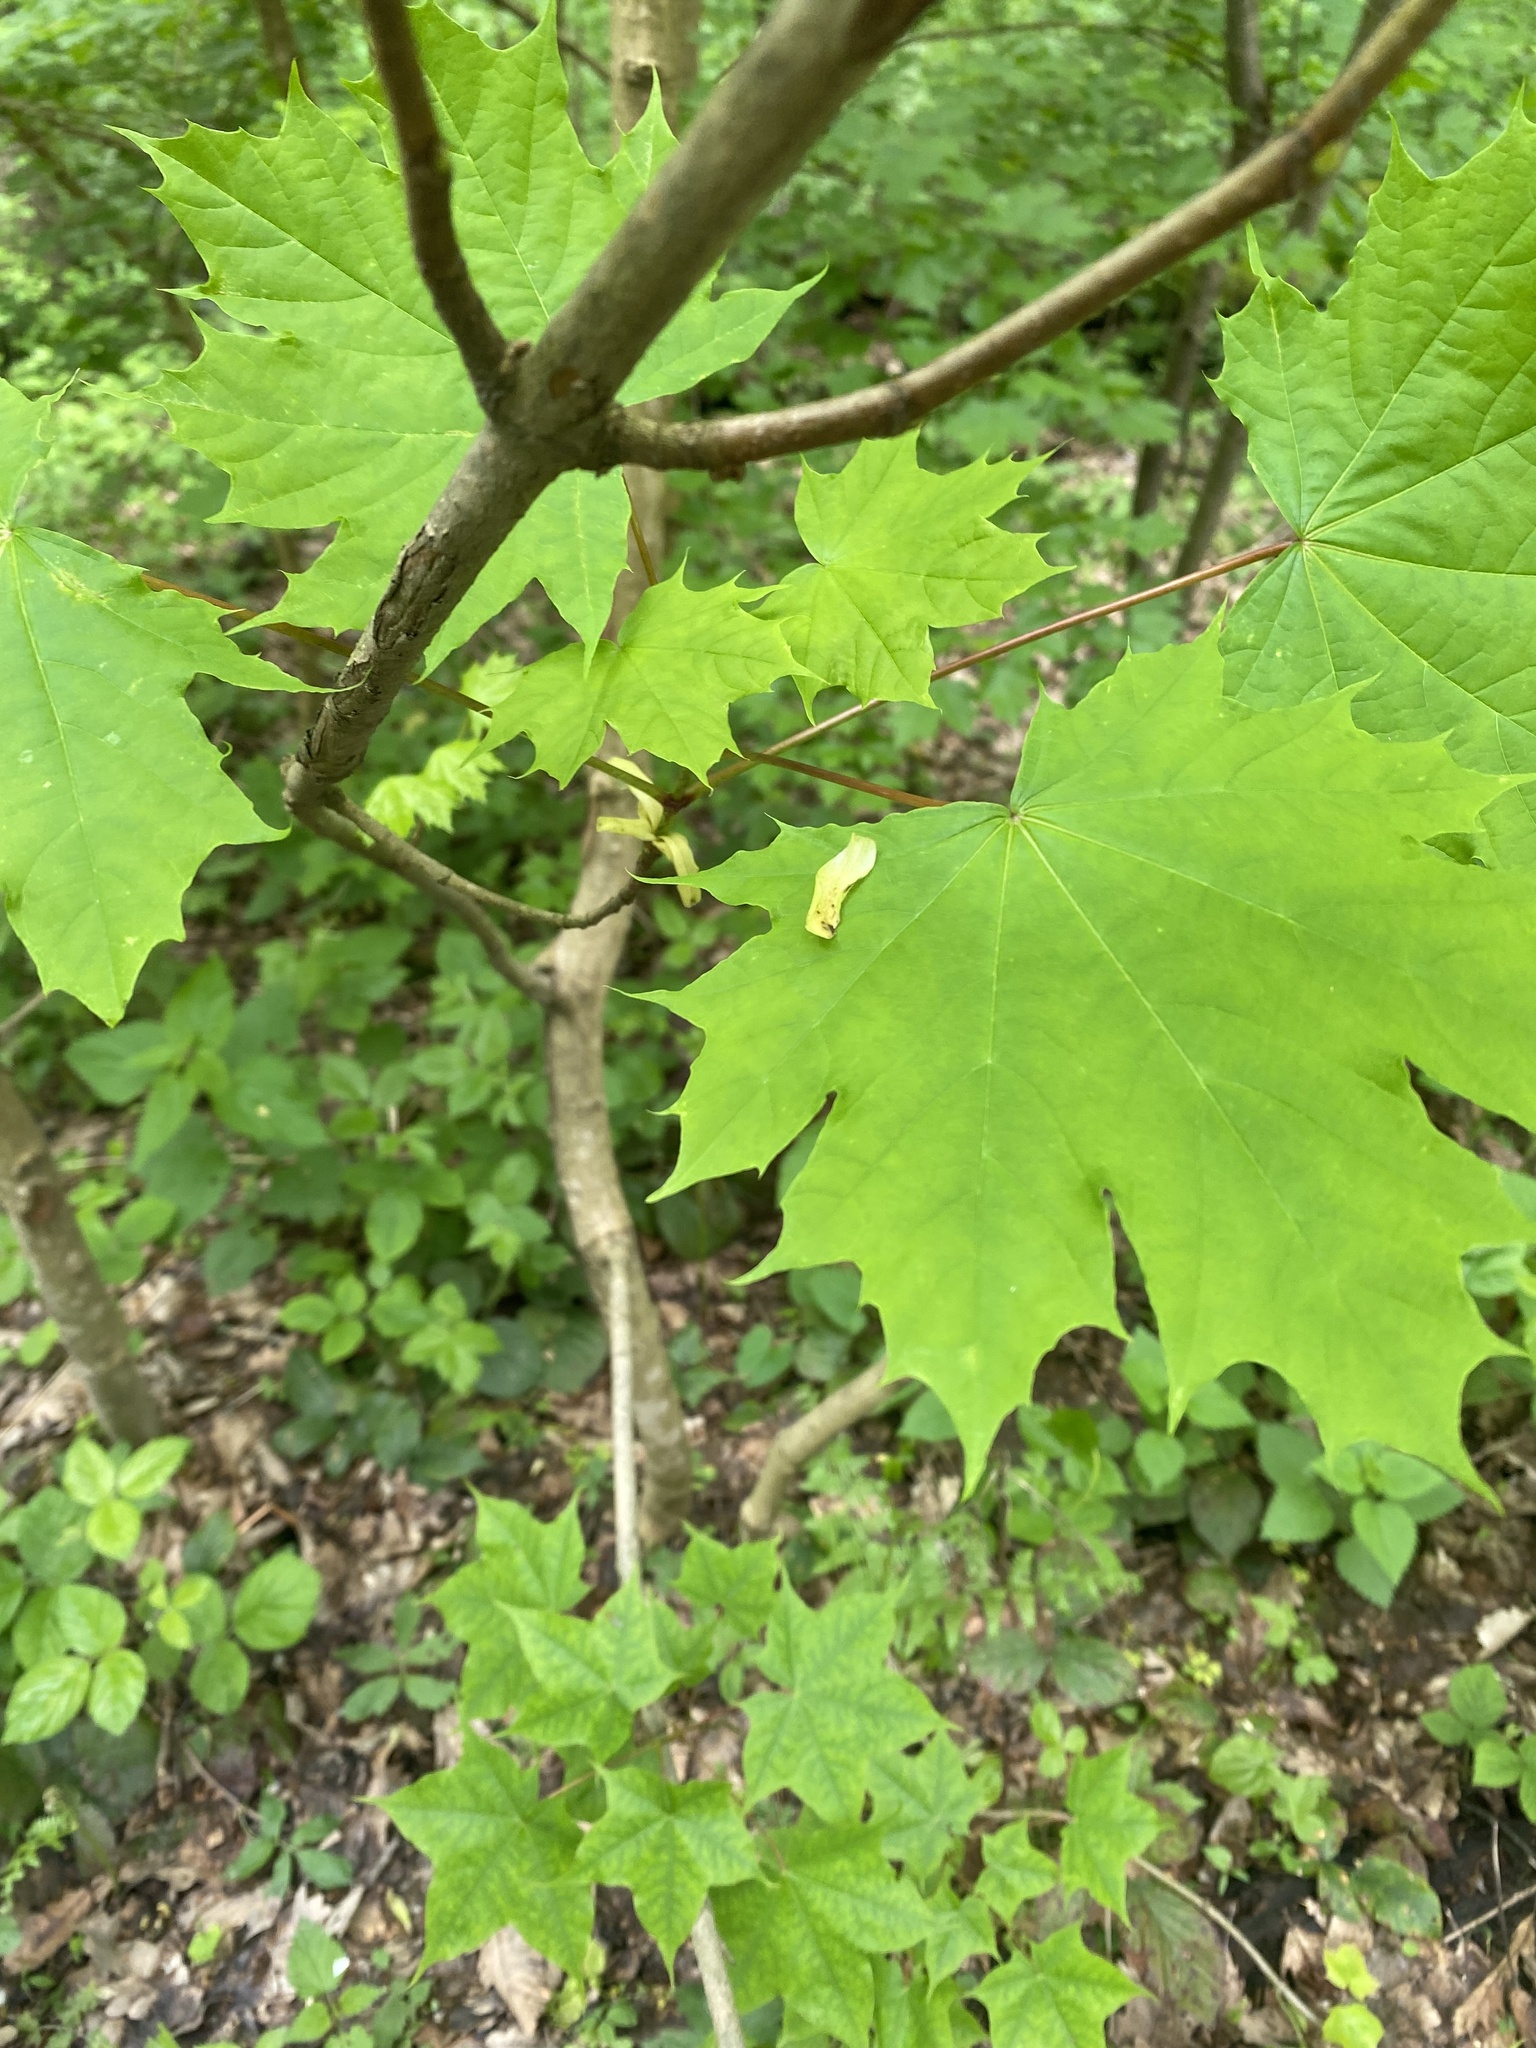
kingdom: Plantae
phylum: Tracheophyta
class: Magnoliopsida
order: Sapindales
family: Sapindaceae
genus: Acer
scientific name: Acer platanoides
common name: Norway maple
